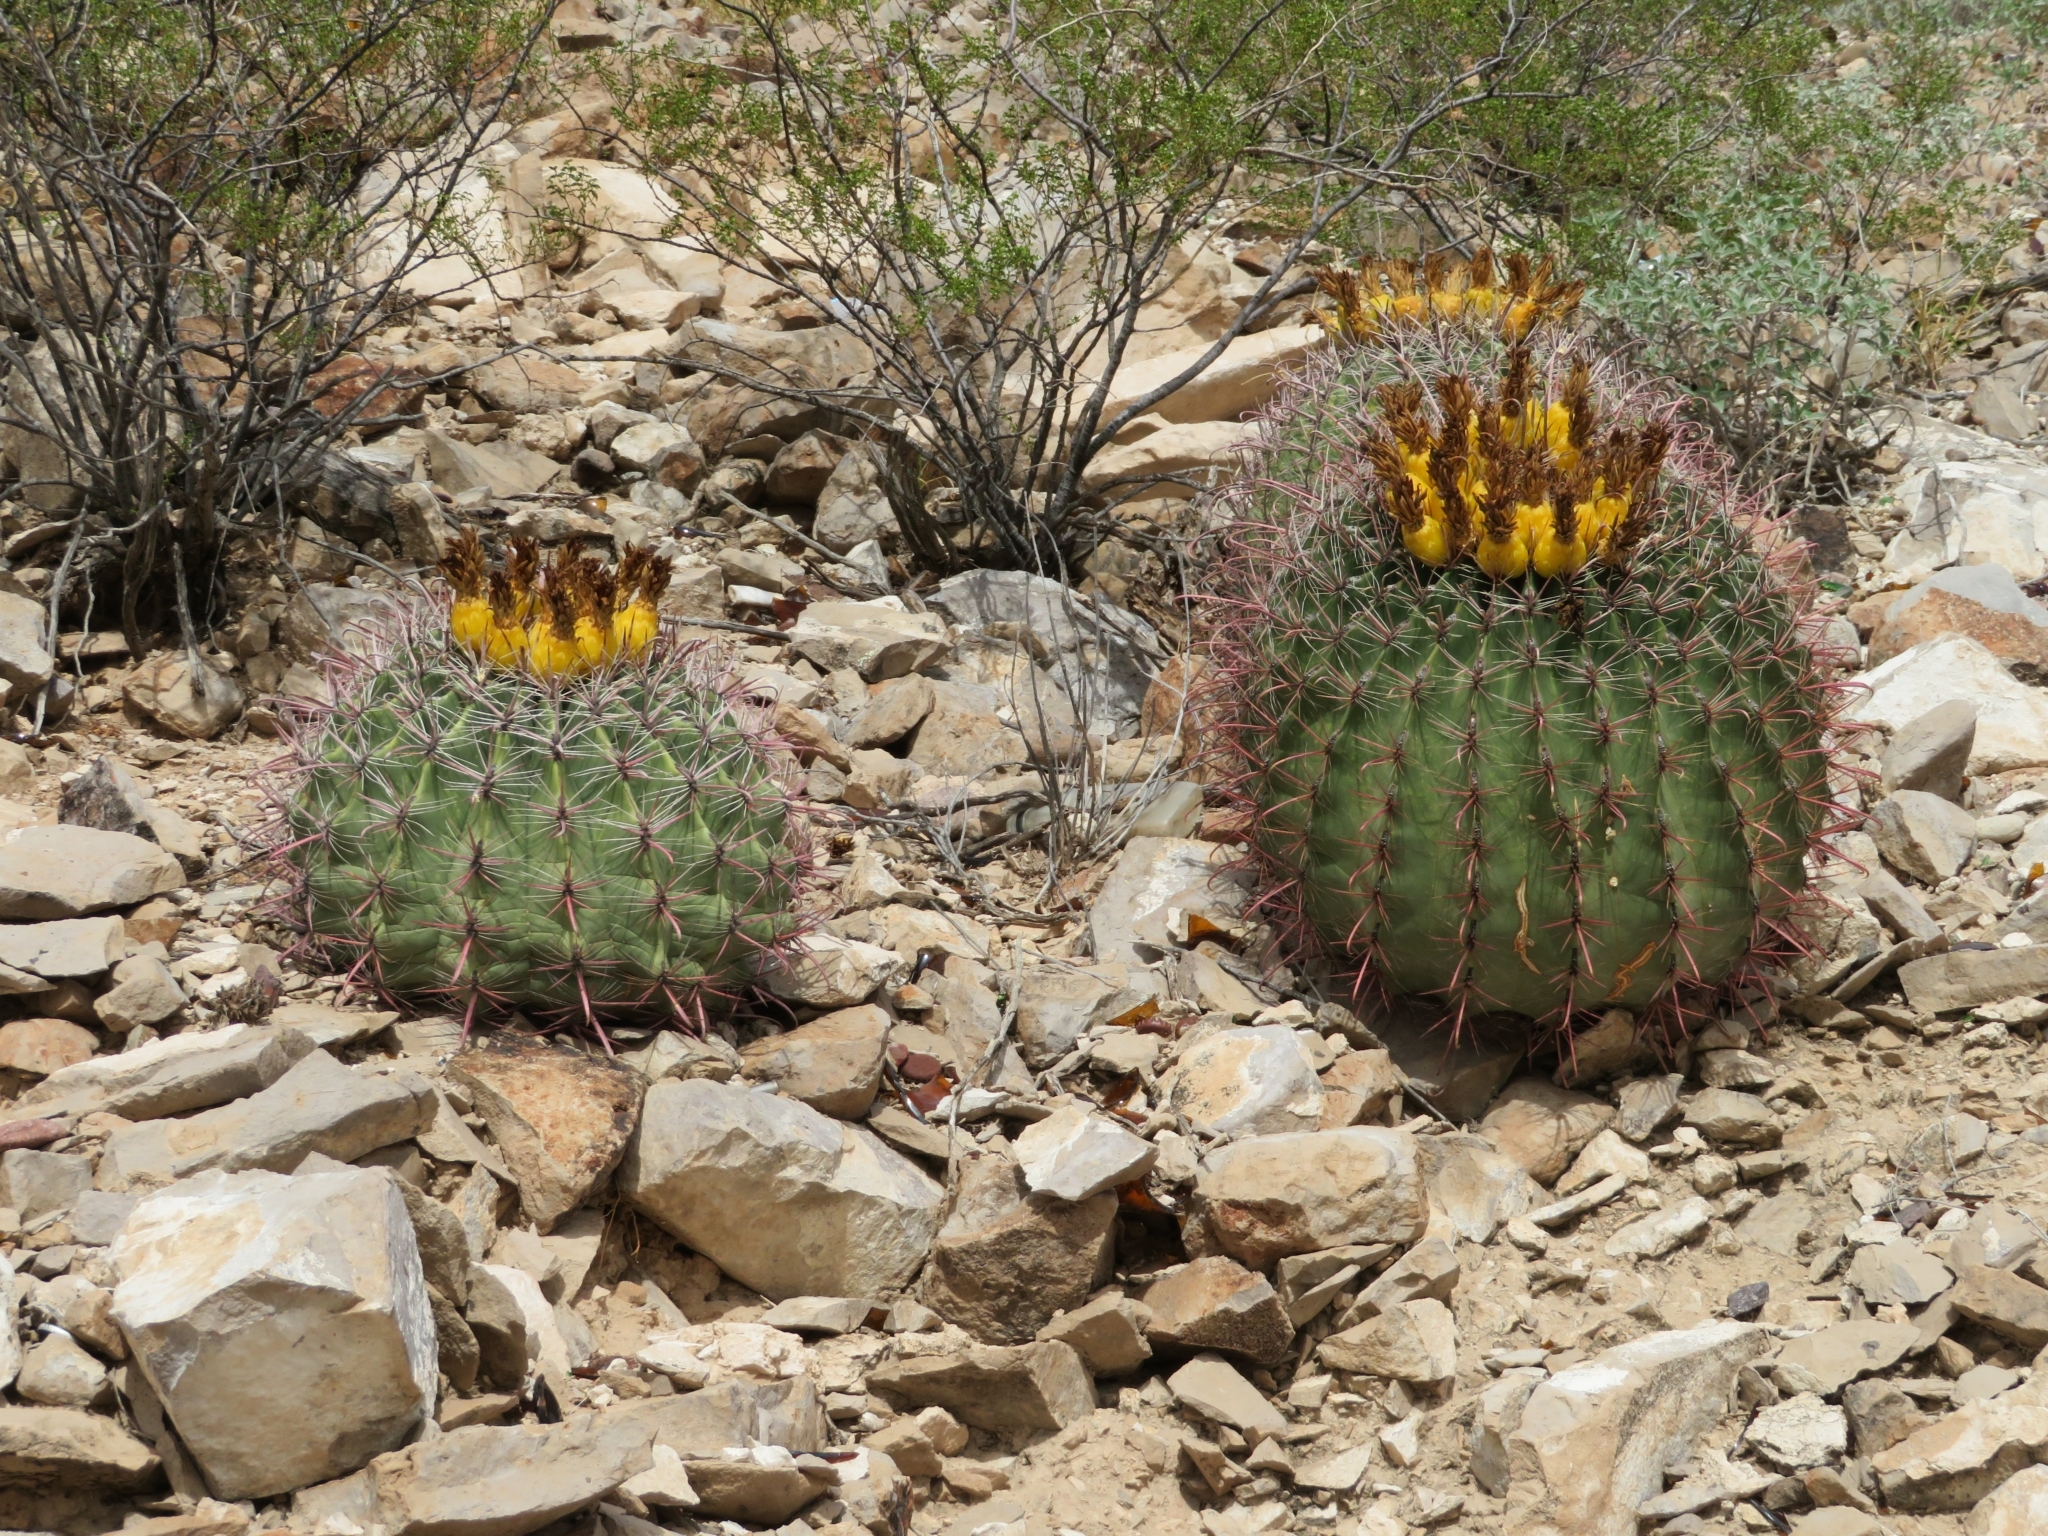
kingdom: Plantae
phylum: Tracheophyta
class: Magnoliopsida
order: Caryophyllales
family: Cactaceae
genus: Ferocactus
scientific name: Ferocactus wislizeni
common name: Candy barrel cactus
